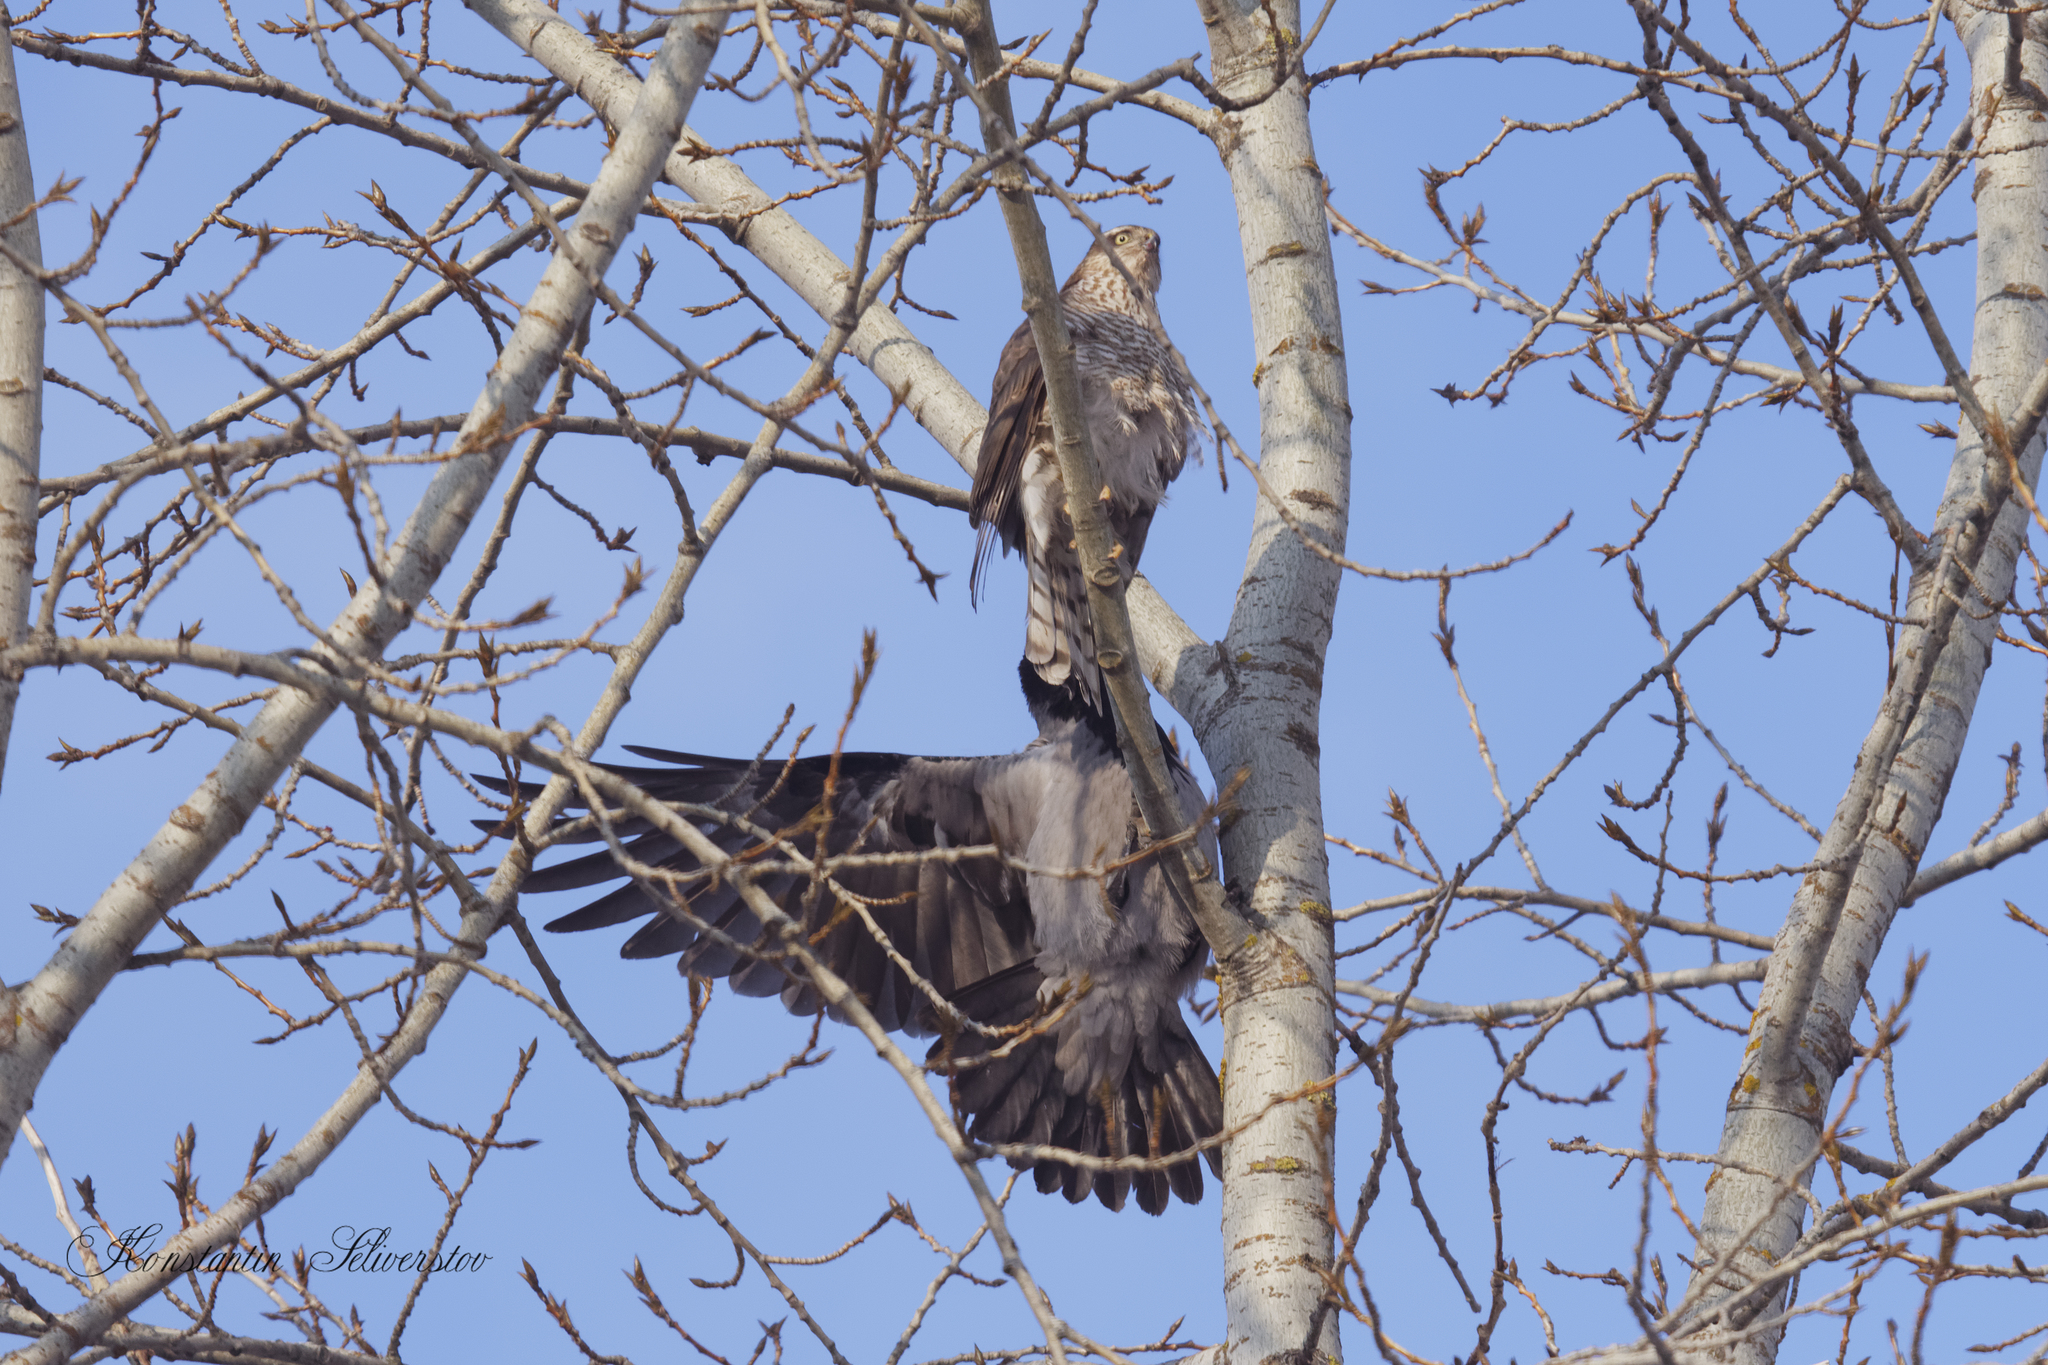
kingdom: Animalia
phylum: Chordata
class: Aves
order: Accipitriformes
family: Accipitridae
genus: Accipiter
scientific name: Accipiter nisus
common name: Eurasian sparrowhawk
